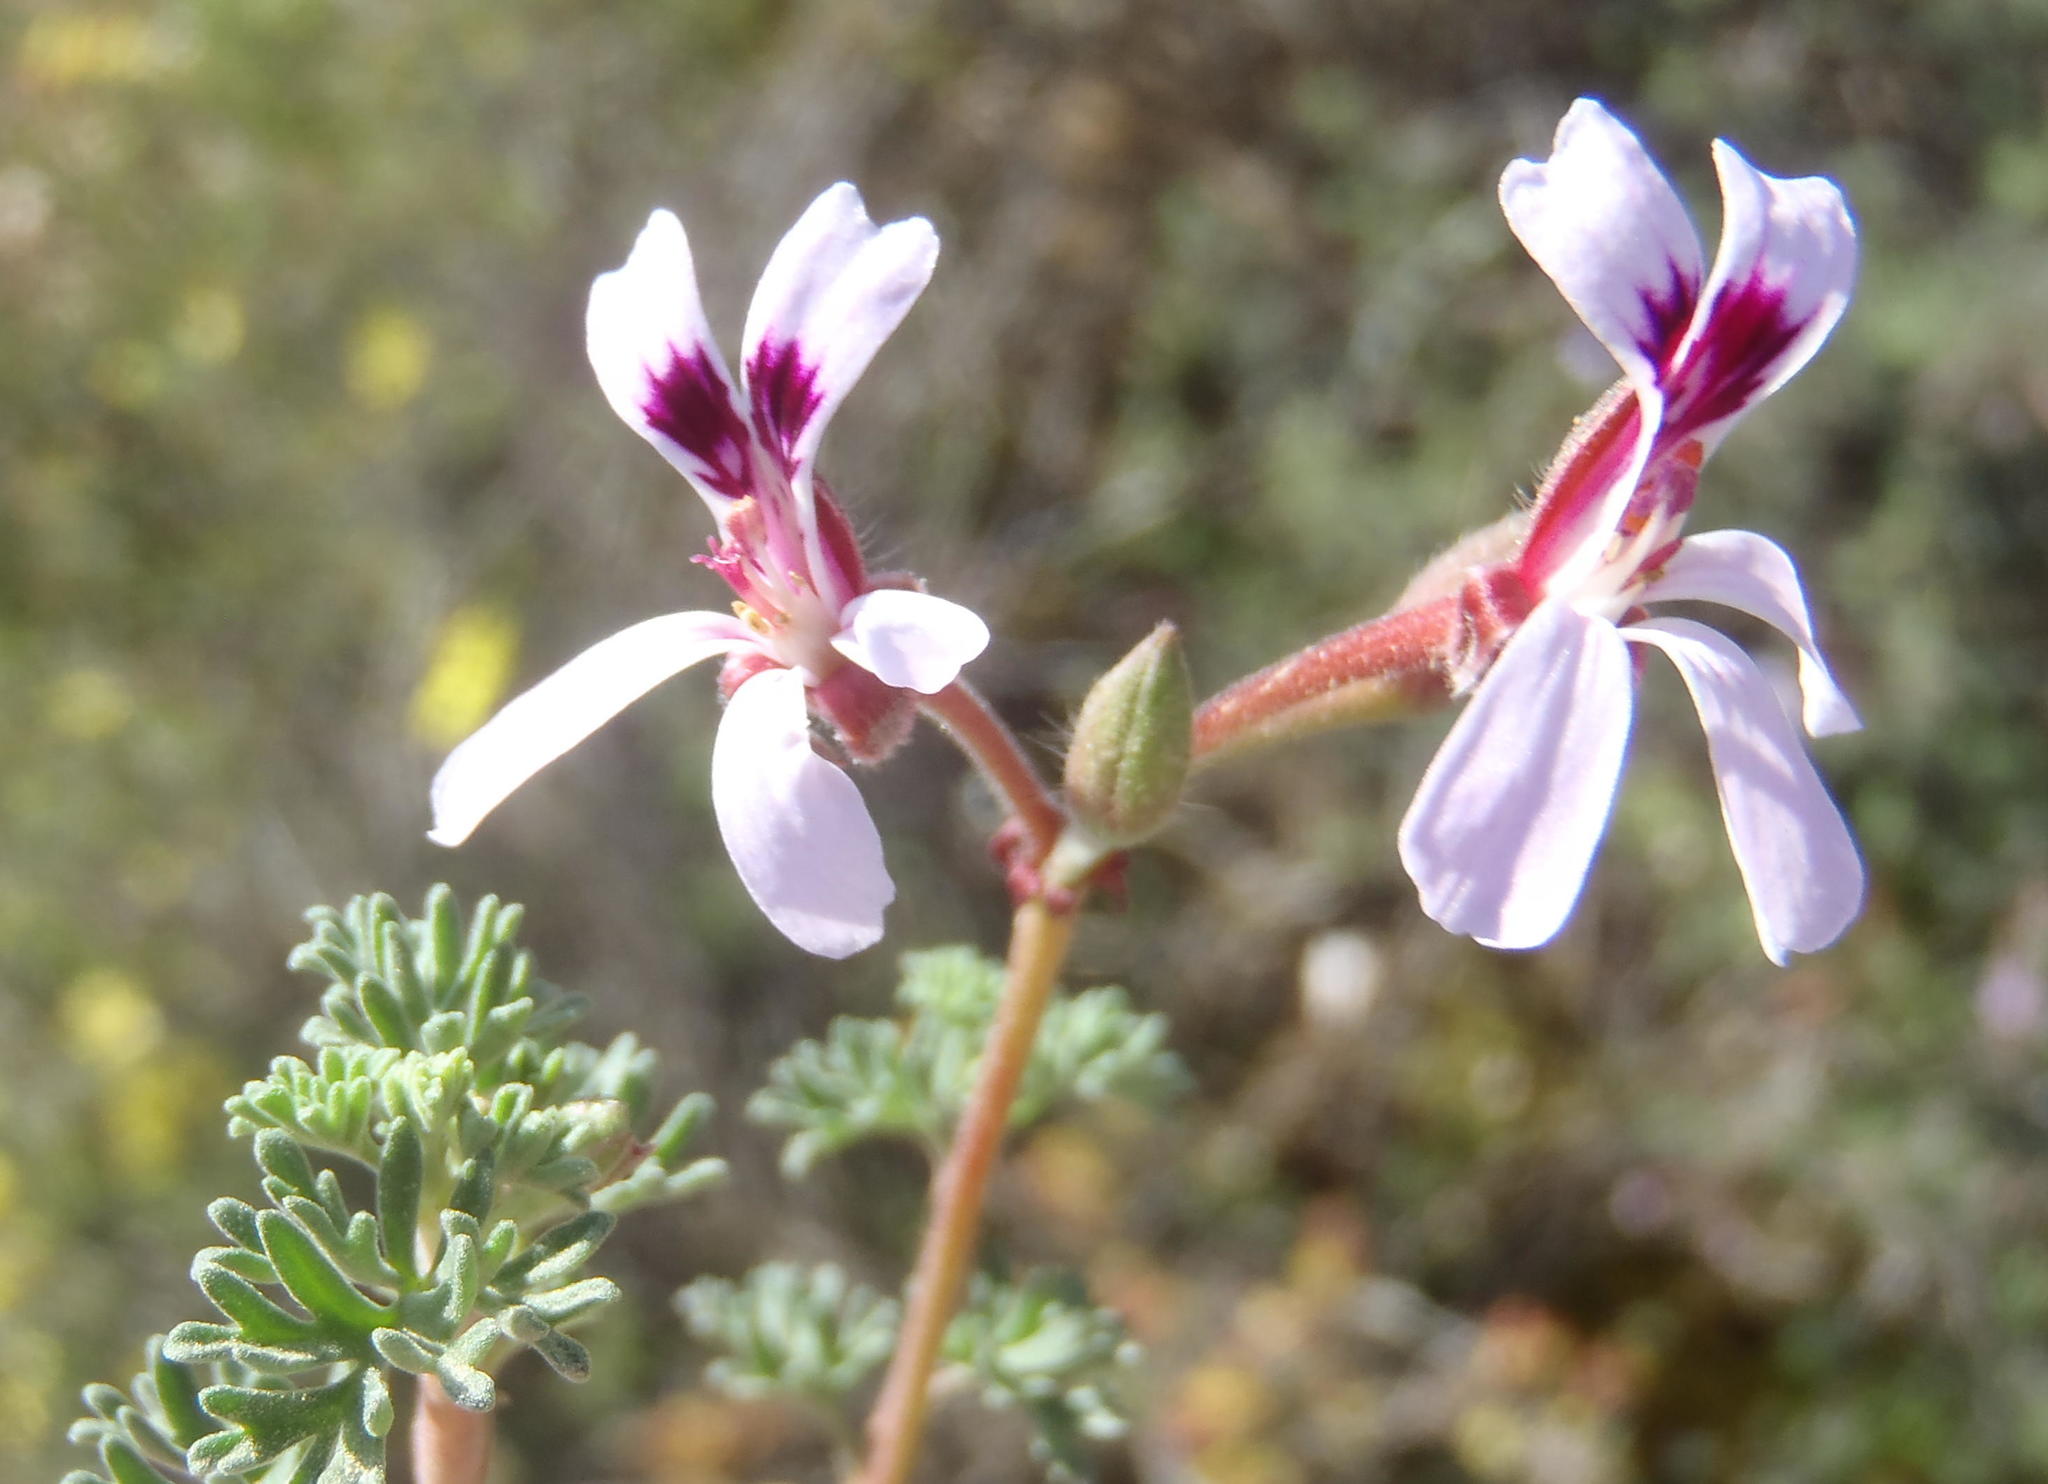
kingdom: Plantae
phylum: Tracheophyta
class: Magnoliopsida
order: Geraniales
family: Geraniaceae
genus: Pelargonium
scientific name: Pelargonium abrotanifolium
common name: Southernwood geranium
